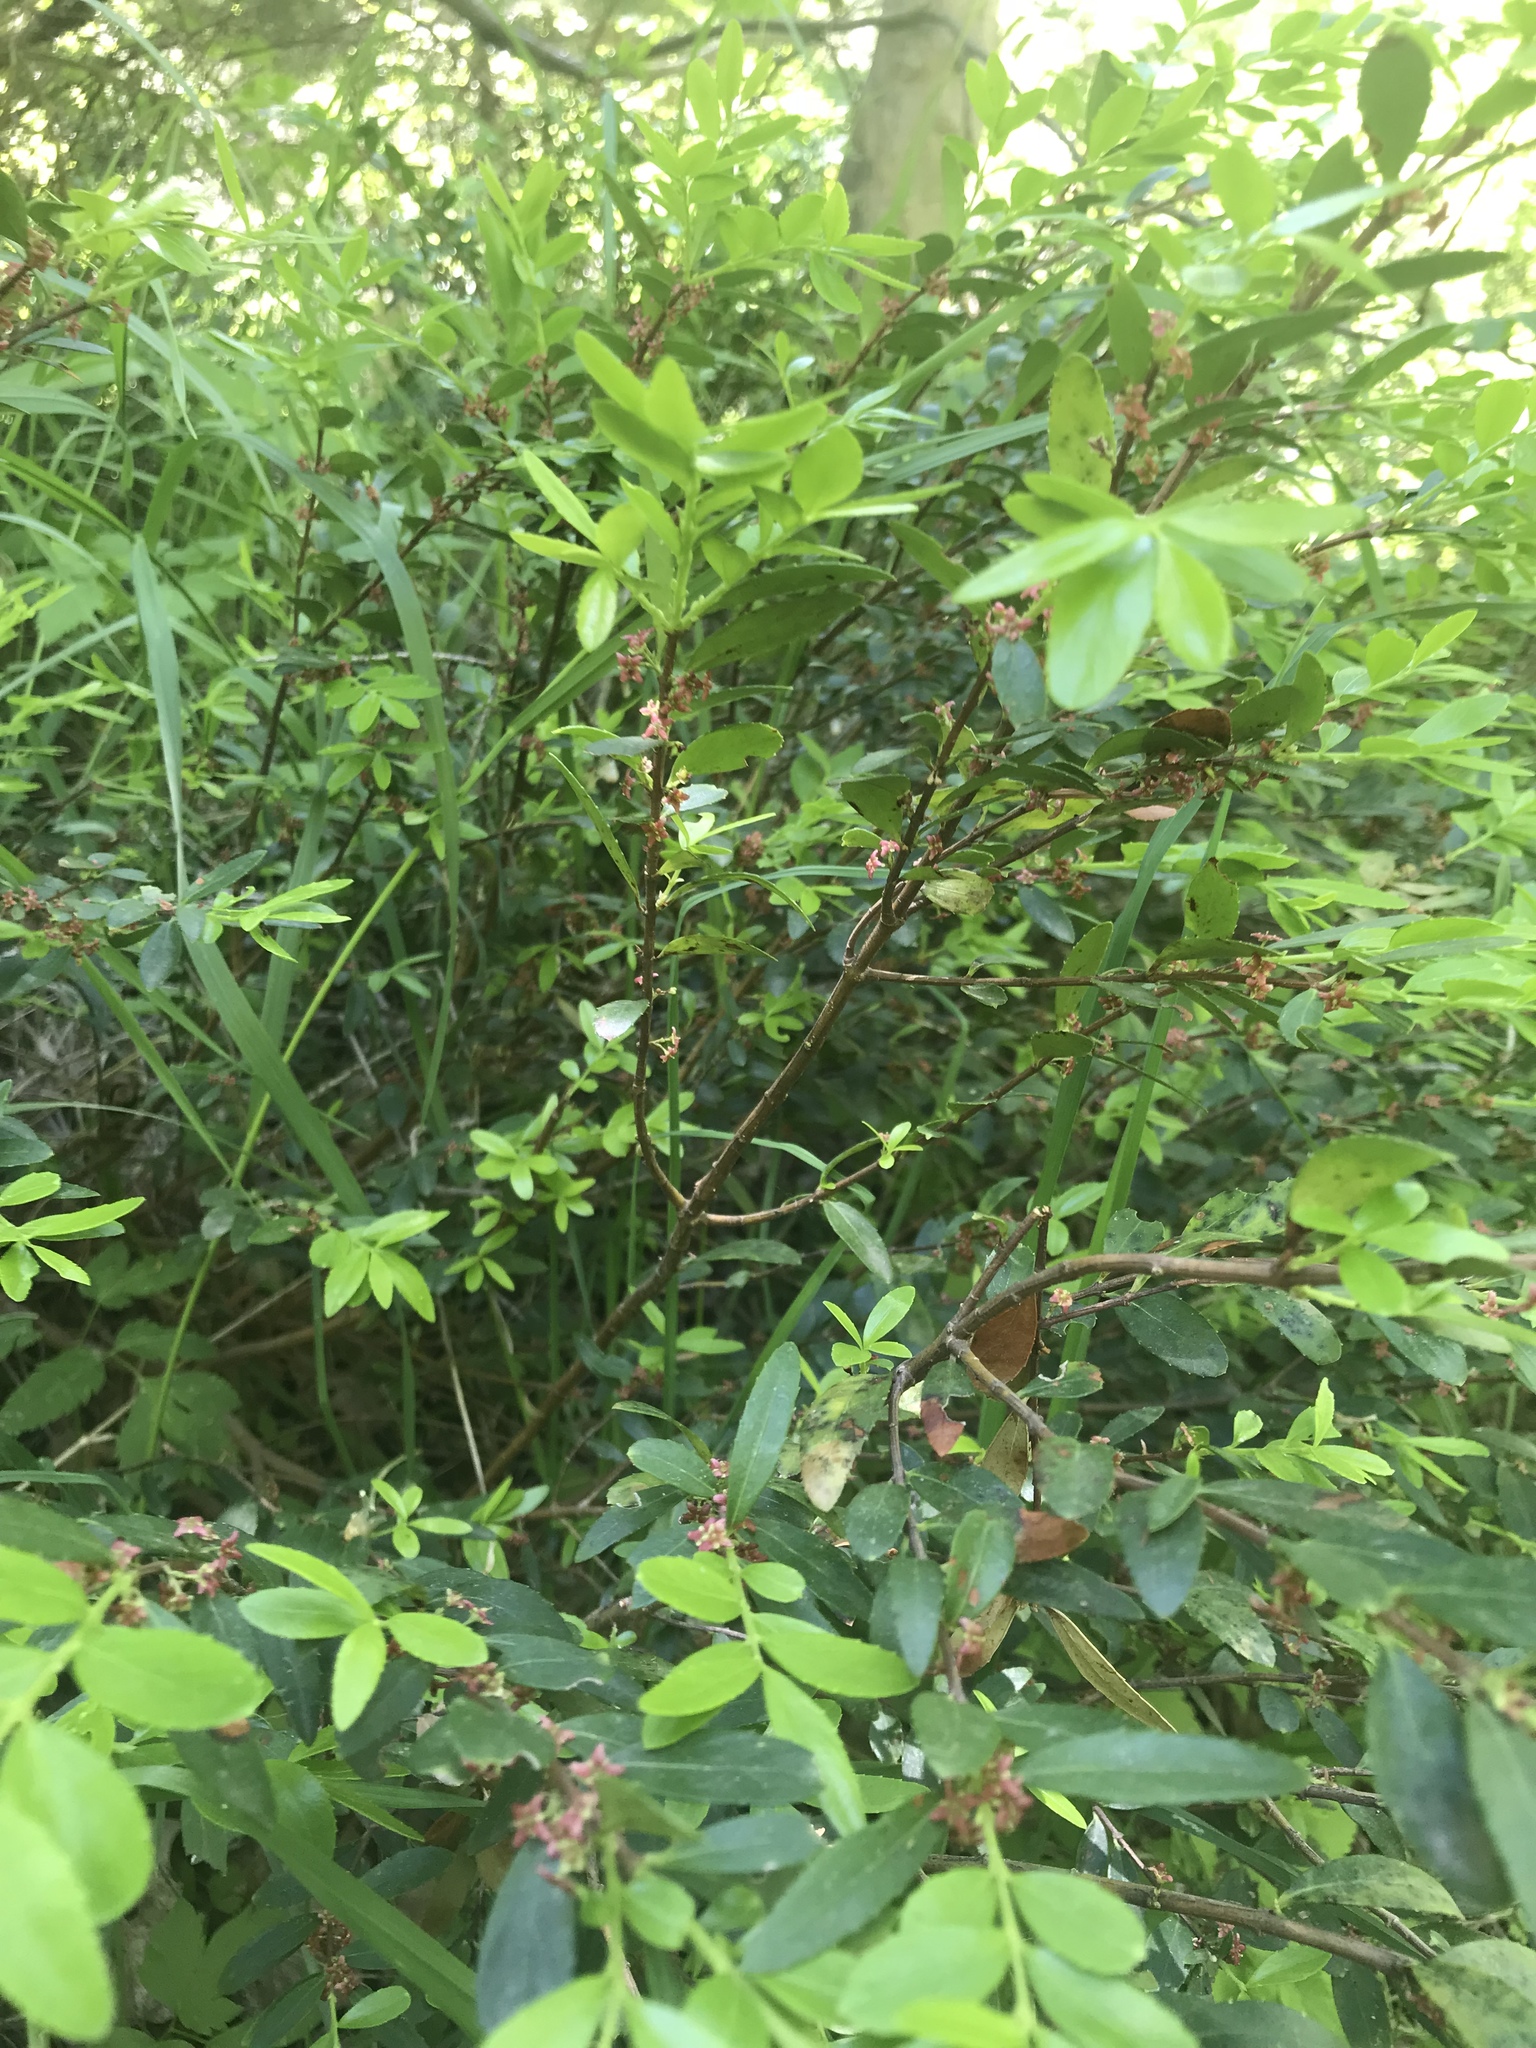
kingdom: Plantae
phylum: Tracheophyta
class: Magnoliopsida
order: Celastrales
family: Celastraceae
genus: Paxistima
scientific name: Paxistima myrsinites
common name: Mountain-lover
